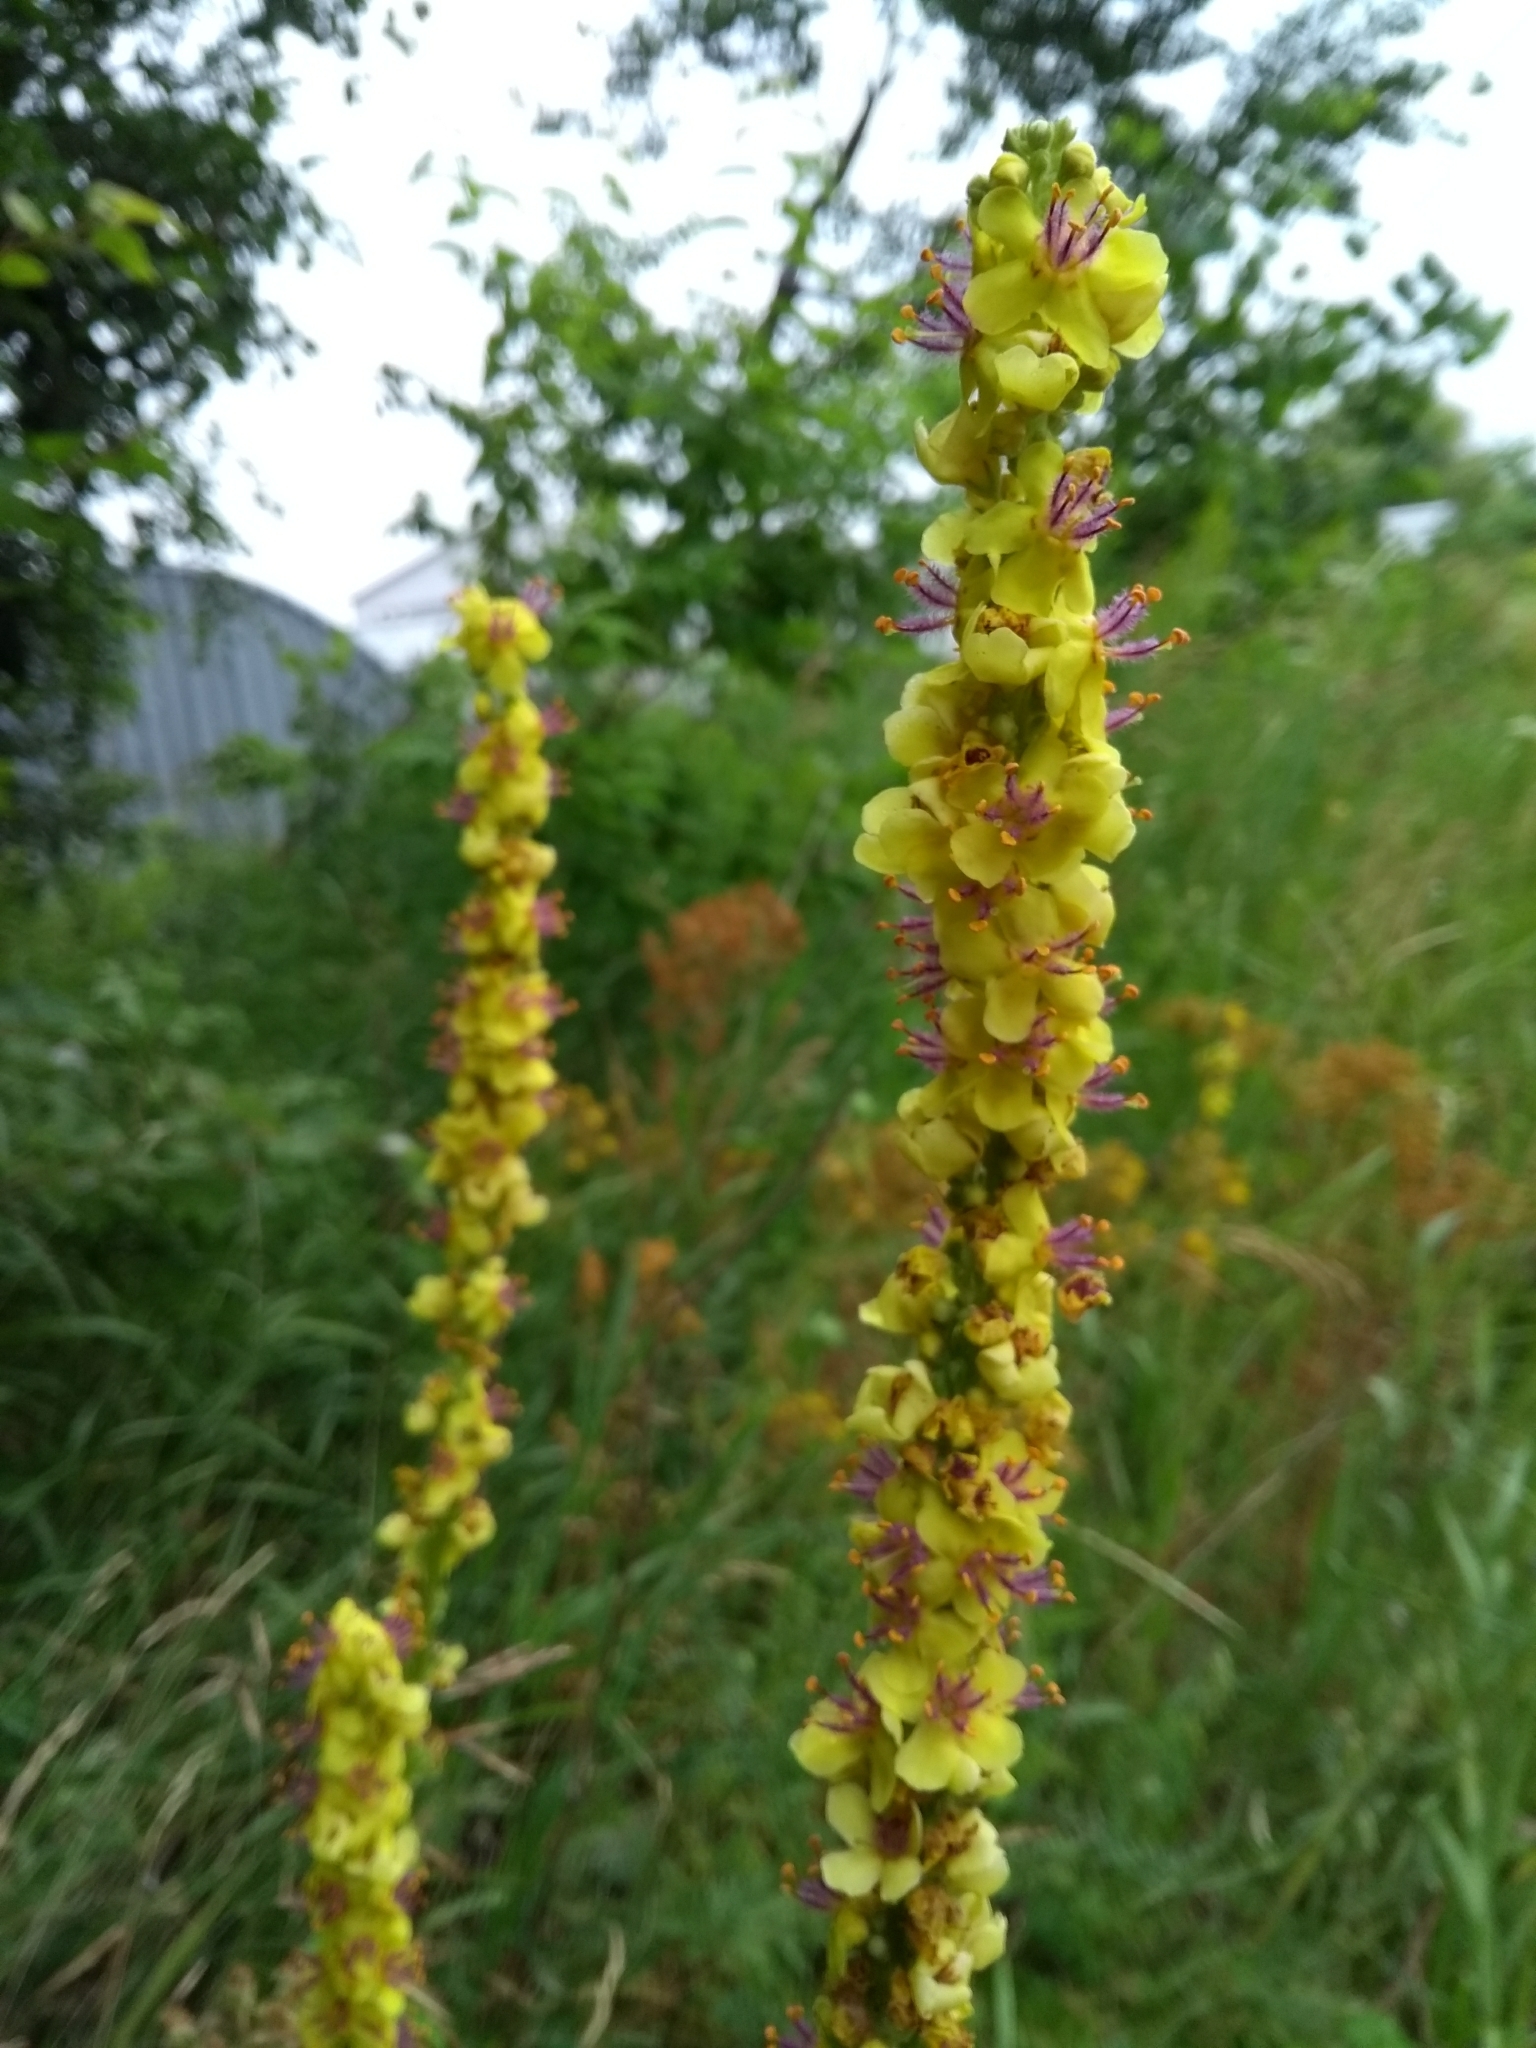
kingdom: Plantae
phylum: Tracheophyta
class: Magnoliopsida
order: Lamiales
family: Scrophulariaceae
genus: Verbascum
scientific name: Verbascum nigrum
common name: Dark mullein
